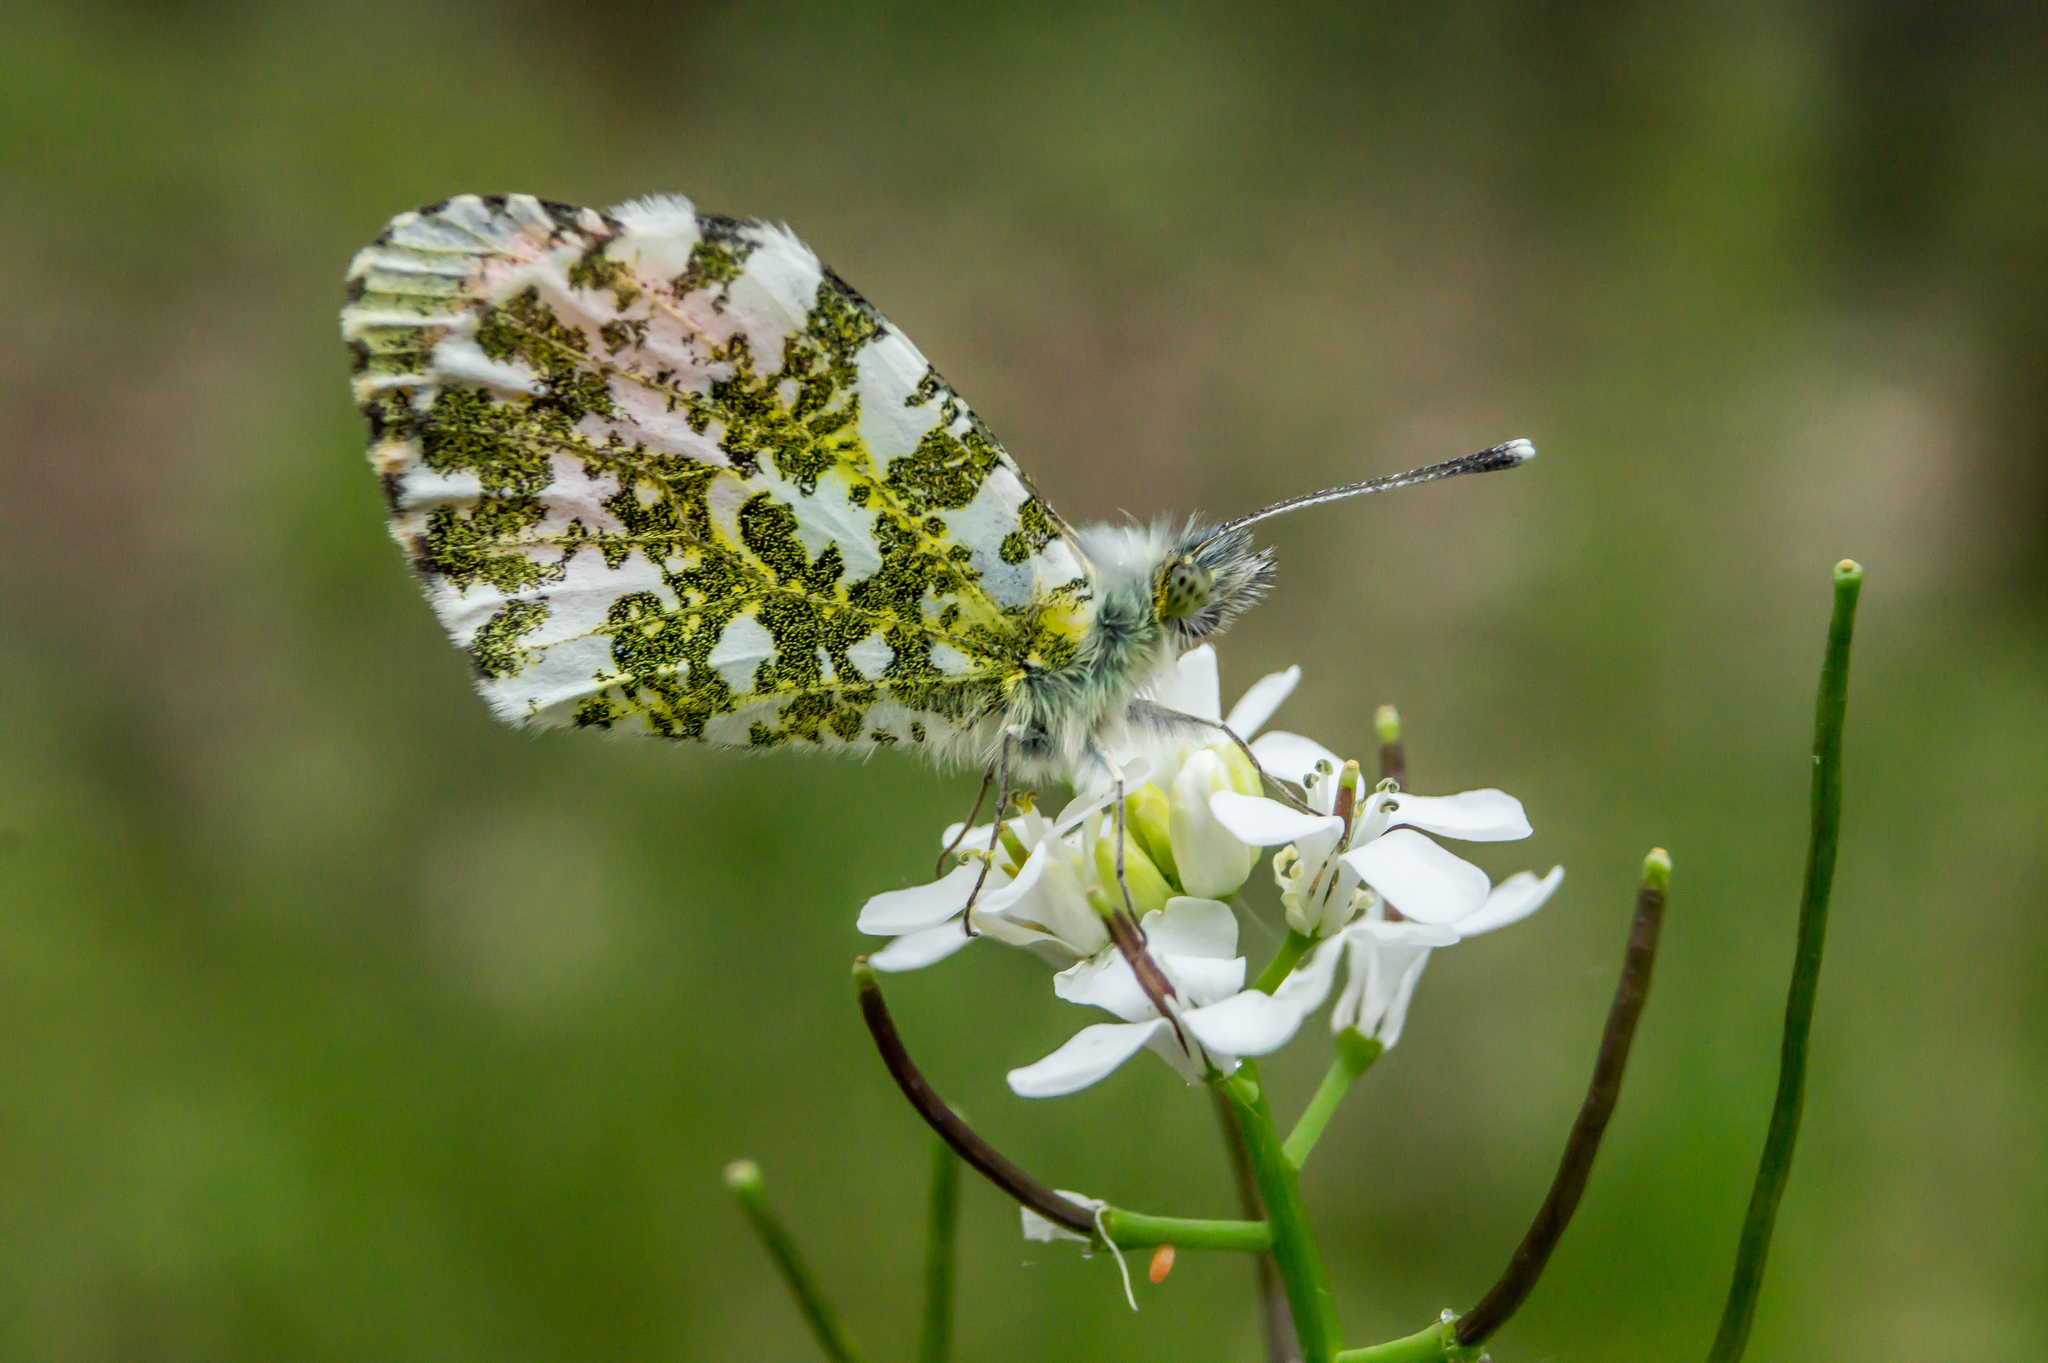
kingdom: Animalia
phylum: Arthropoda
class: Insecta
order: Lepidoptera
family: Pieridae
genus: Anthocharis
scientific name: Anthocharis cardamines
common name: Orange-tip
